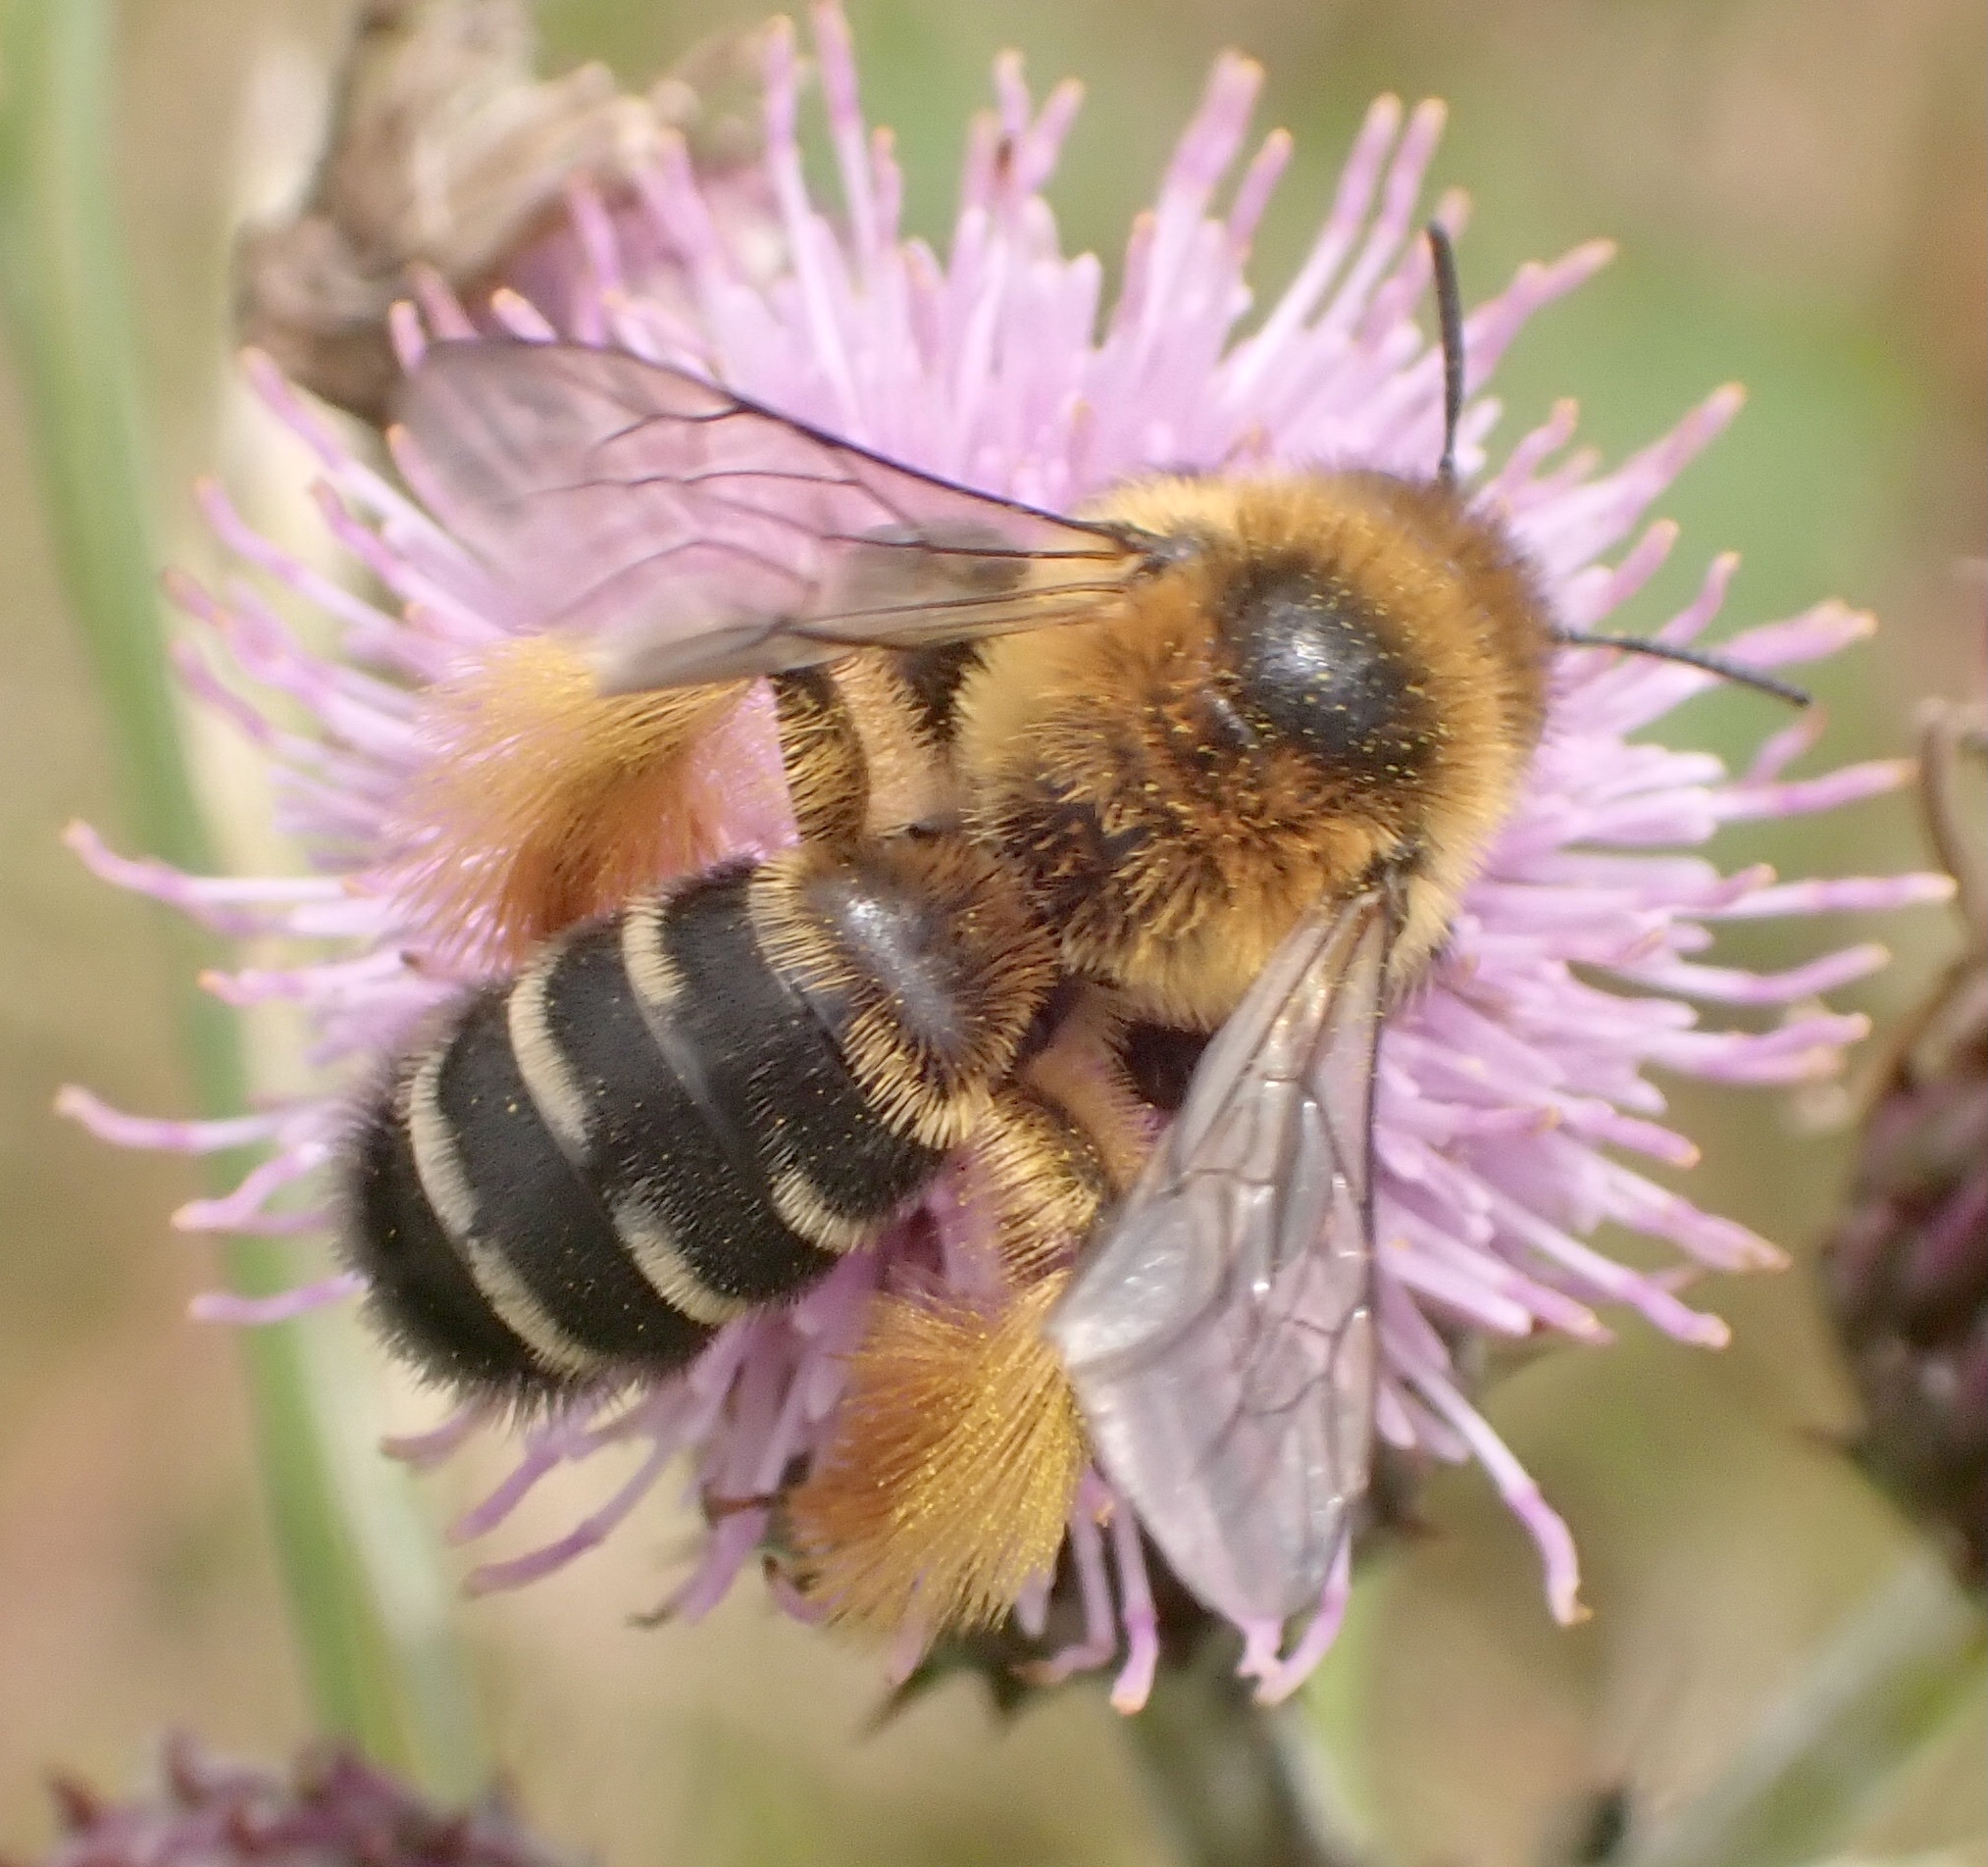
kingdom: Animalia
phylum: Arthropoda
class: Insecta
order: Hymenoptera
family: Melittidae
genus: Dasypoda
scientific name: Dasypoda hirtipes
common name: Pantaloon bee
